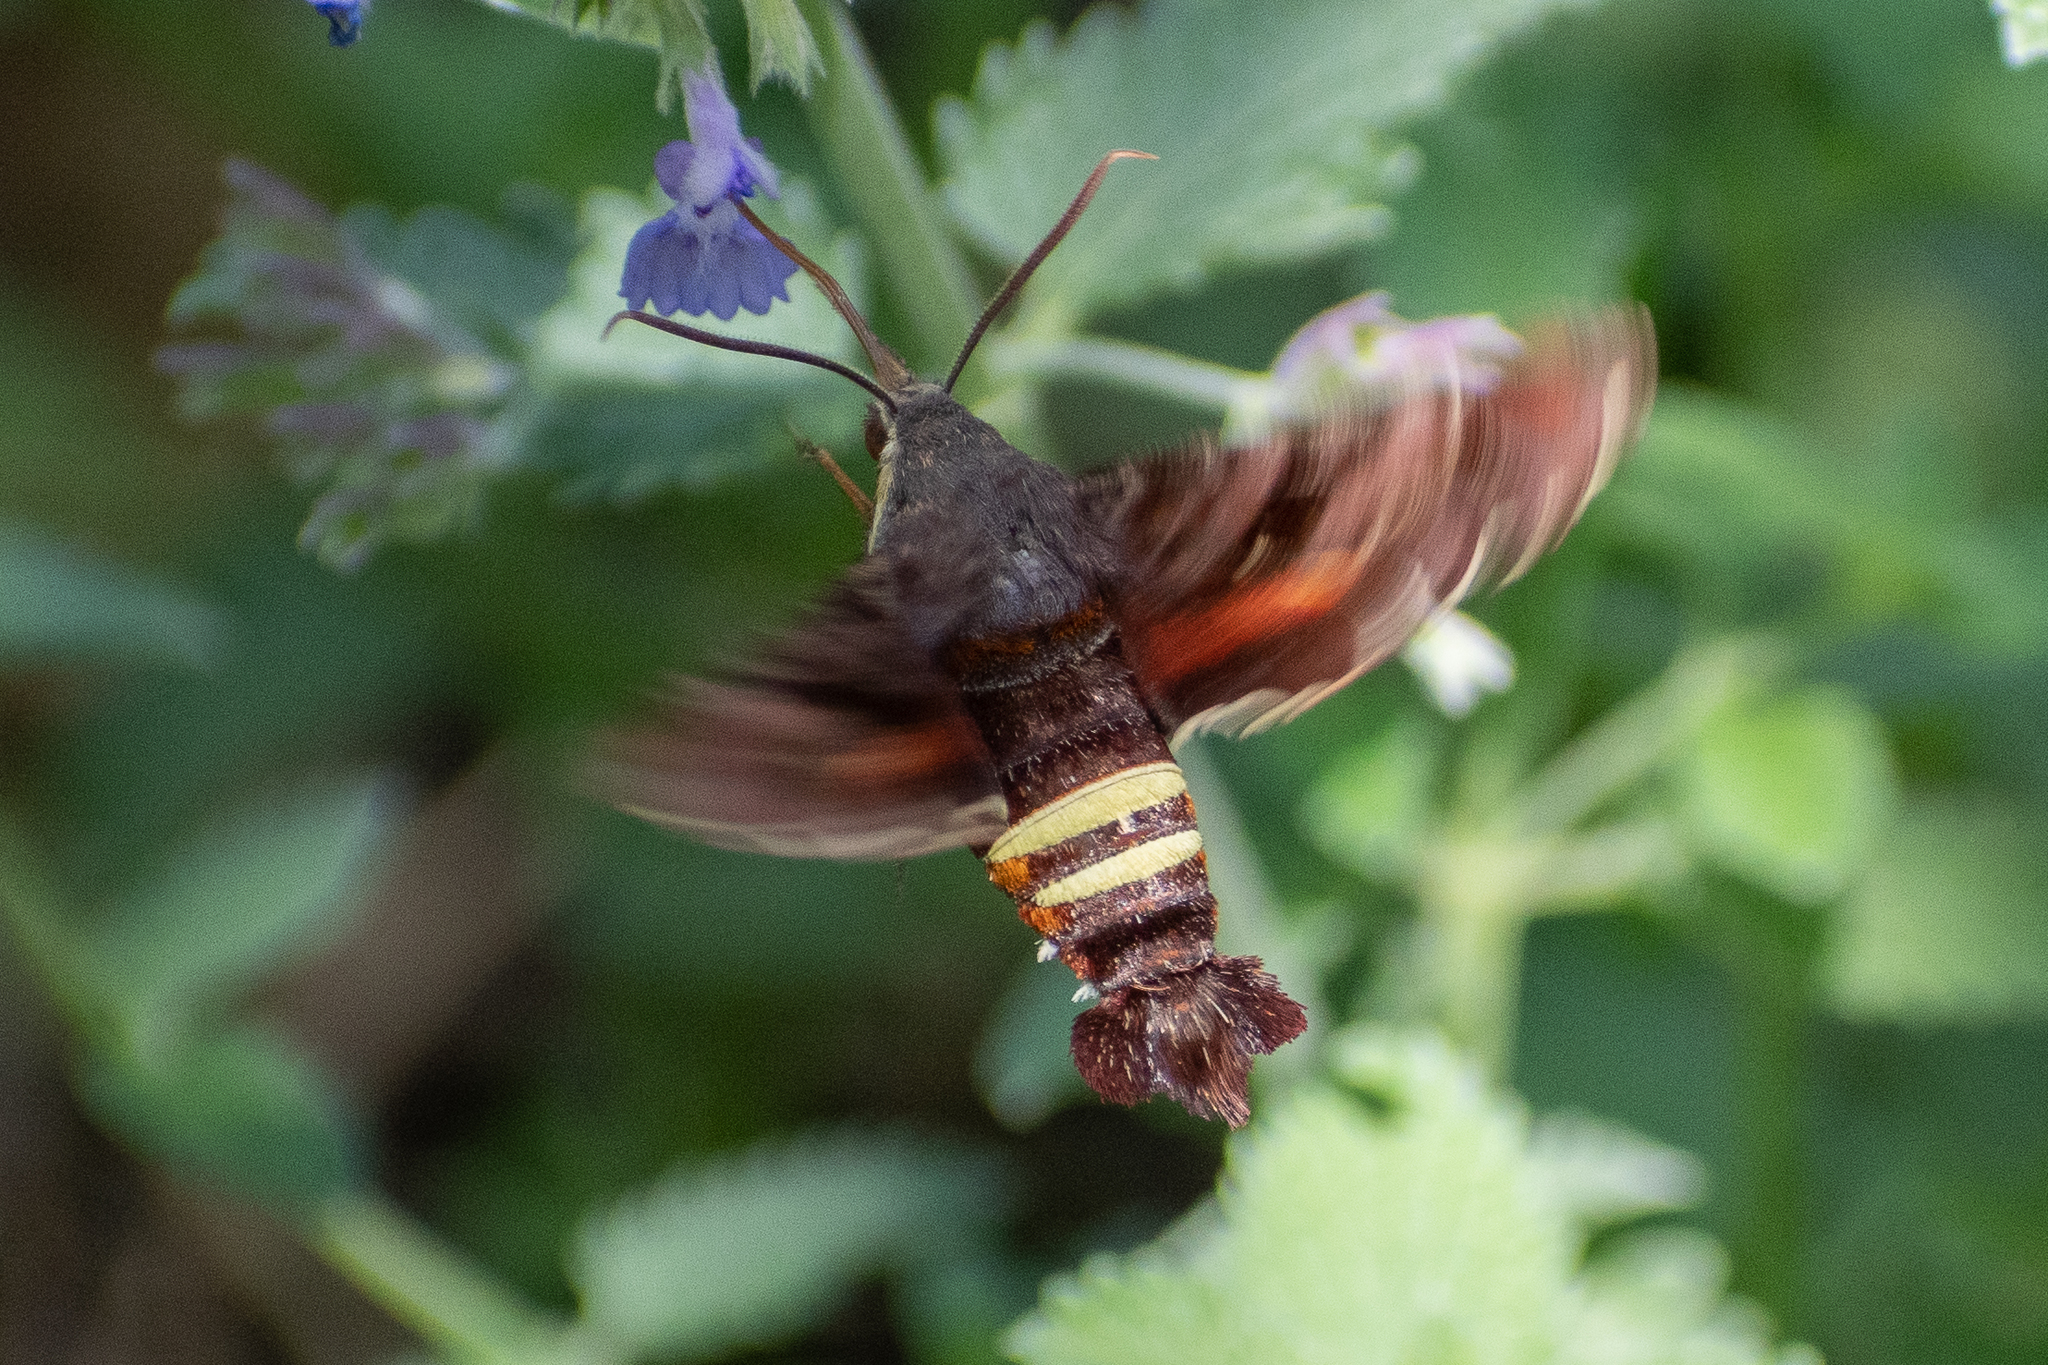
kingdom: Animalia
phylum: Arthropoda
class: Insecta
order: Lepidoptera
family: Sphingidae
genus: Amphion
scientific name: Amphion floridensis
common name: Nessus sphinx
